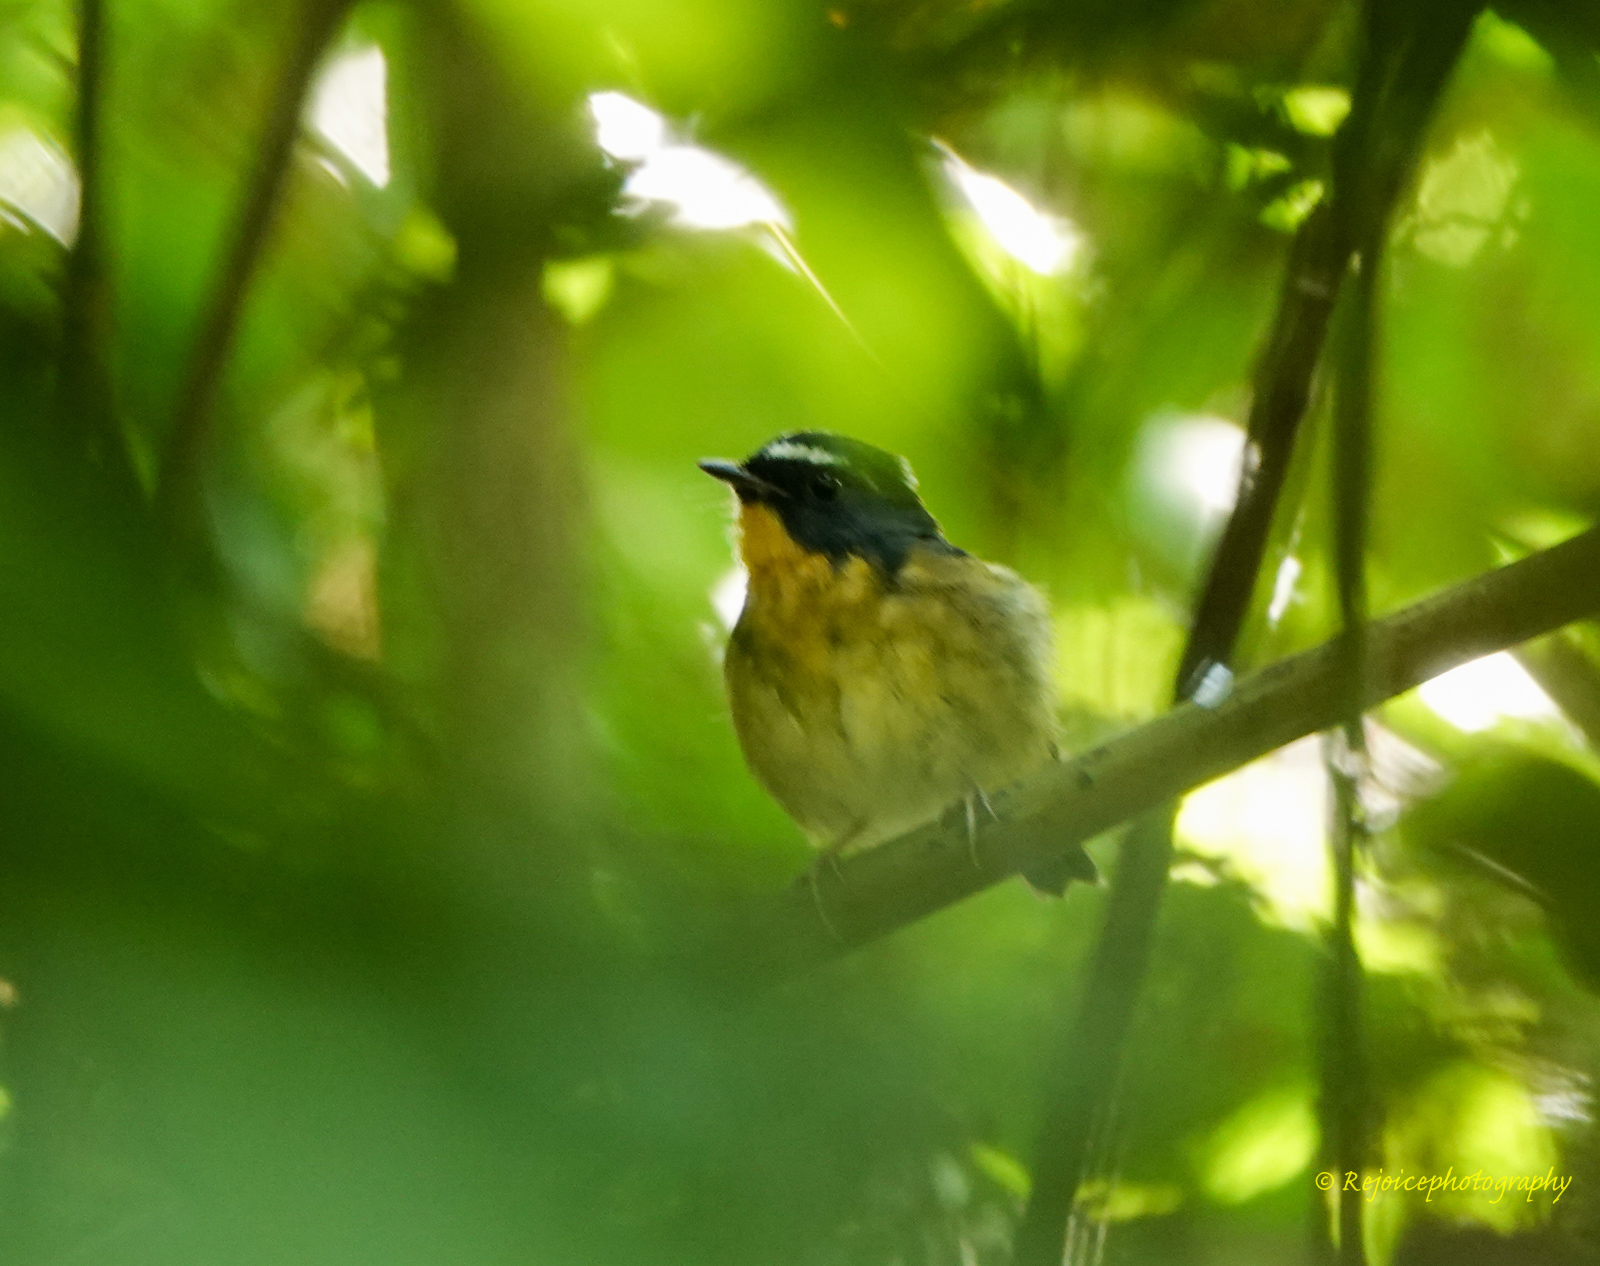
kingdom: Animalia
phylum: Chordata
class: Aves
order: Passeriformes
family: Muscicapidae
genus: Ficedula
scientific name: Ficedula hyperythra
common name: Snowy-browed flycatcher
